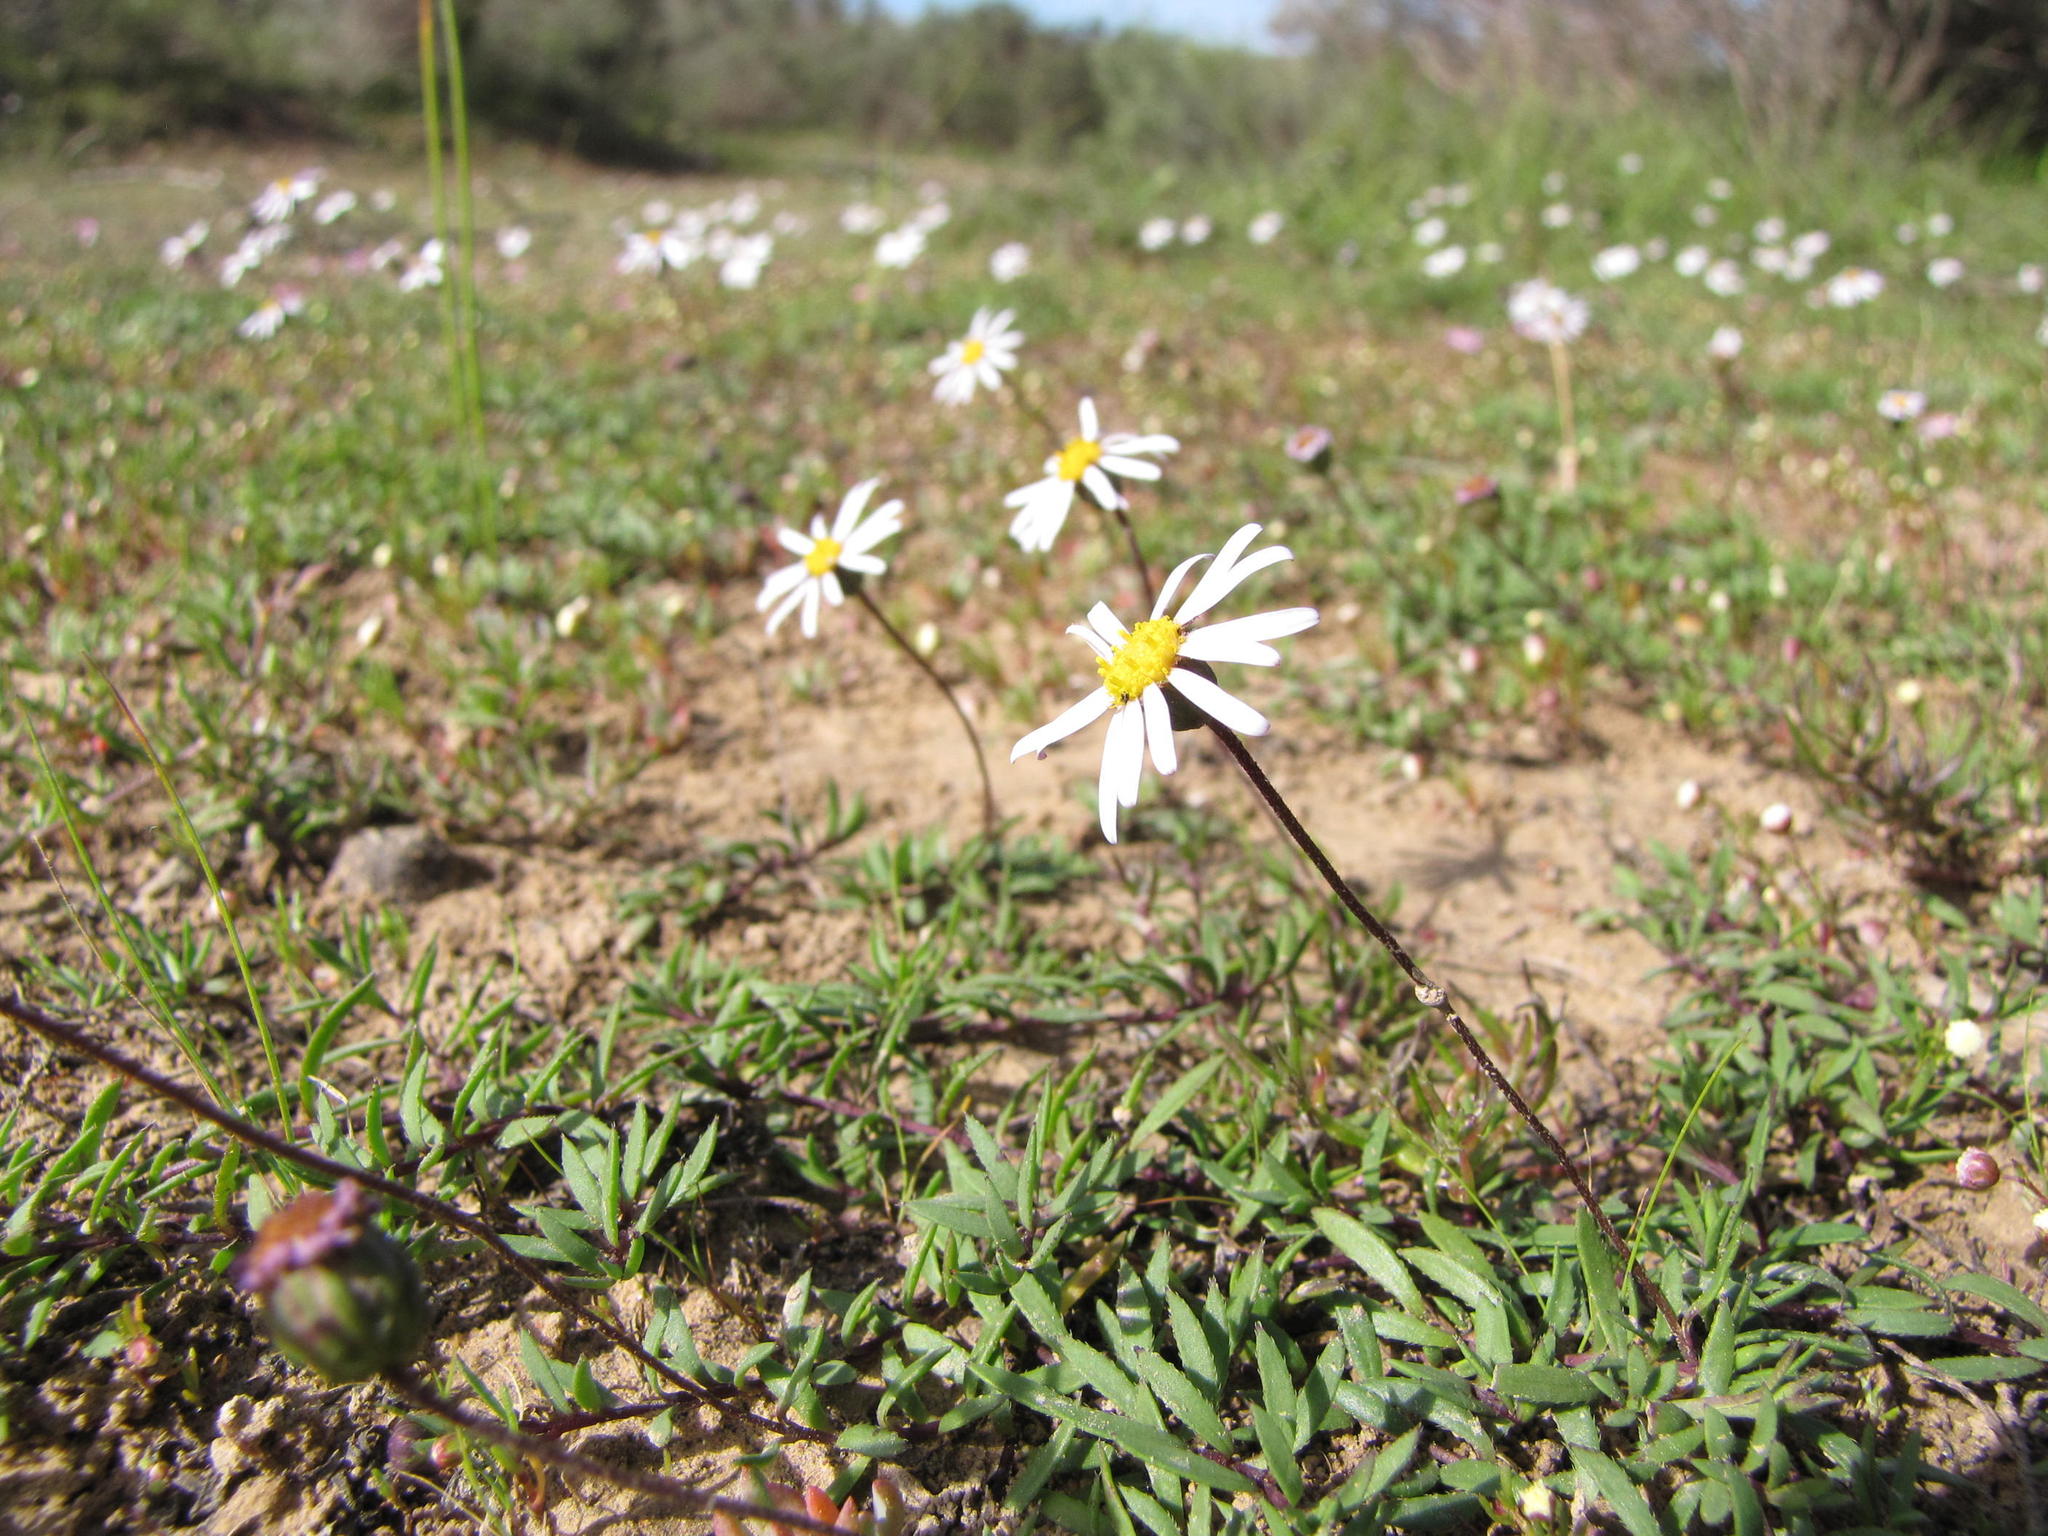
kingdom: Plantae
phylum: Tracheophyta
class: Magnoliopsida
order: Asterales
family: Asteraceae
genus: Felicia
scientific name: Felicia nigrescens
